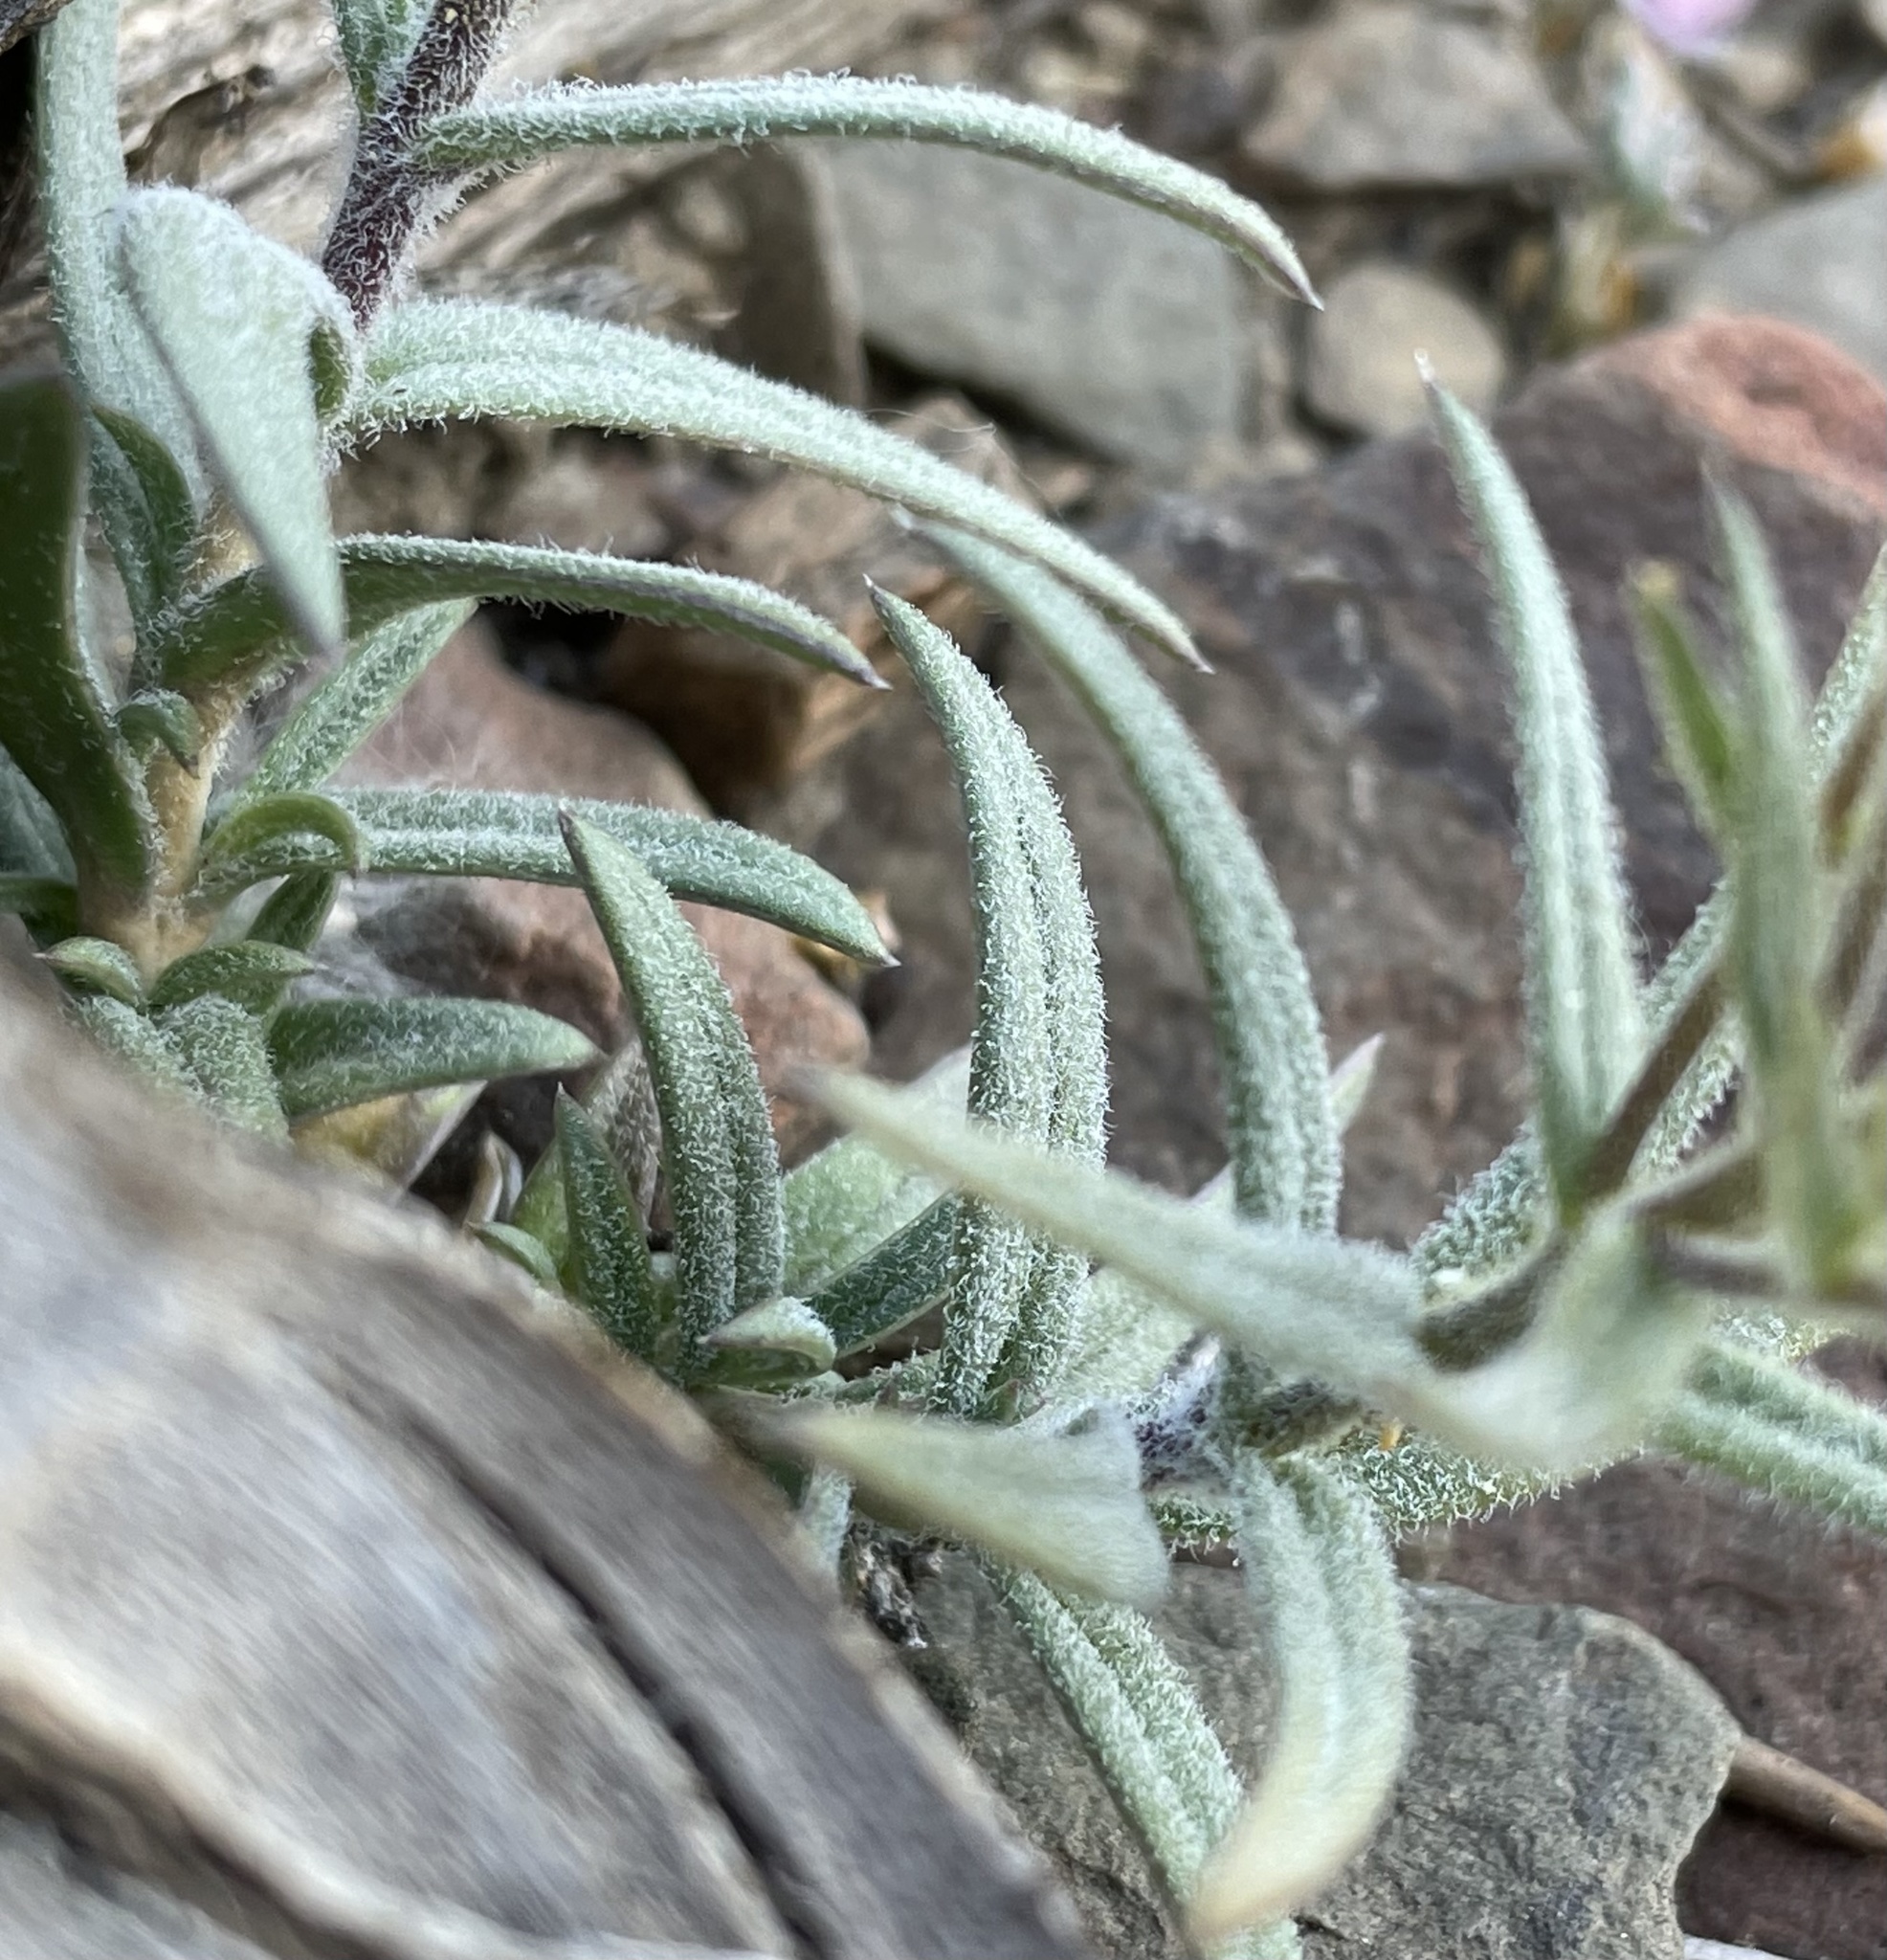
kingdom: Plantae
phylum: Tracheophyta
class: Magnoliopsida
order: Ericales
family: Polemoniaceae
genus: Phlox
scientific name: Phlox longifolia
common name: Longleaf phlox
